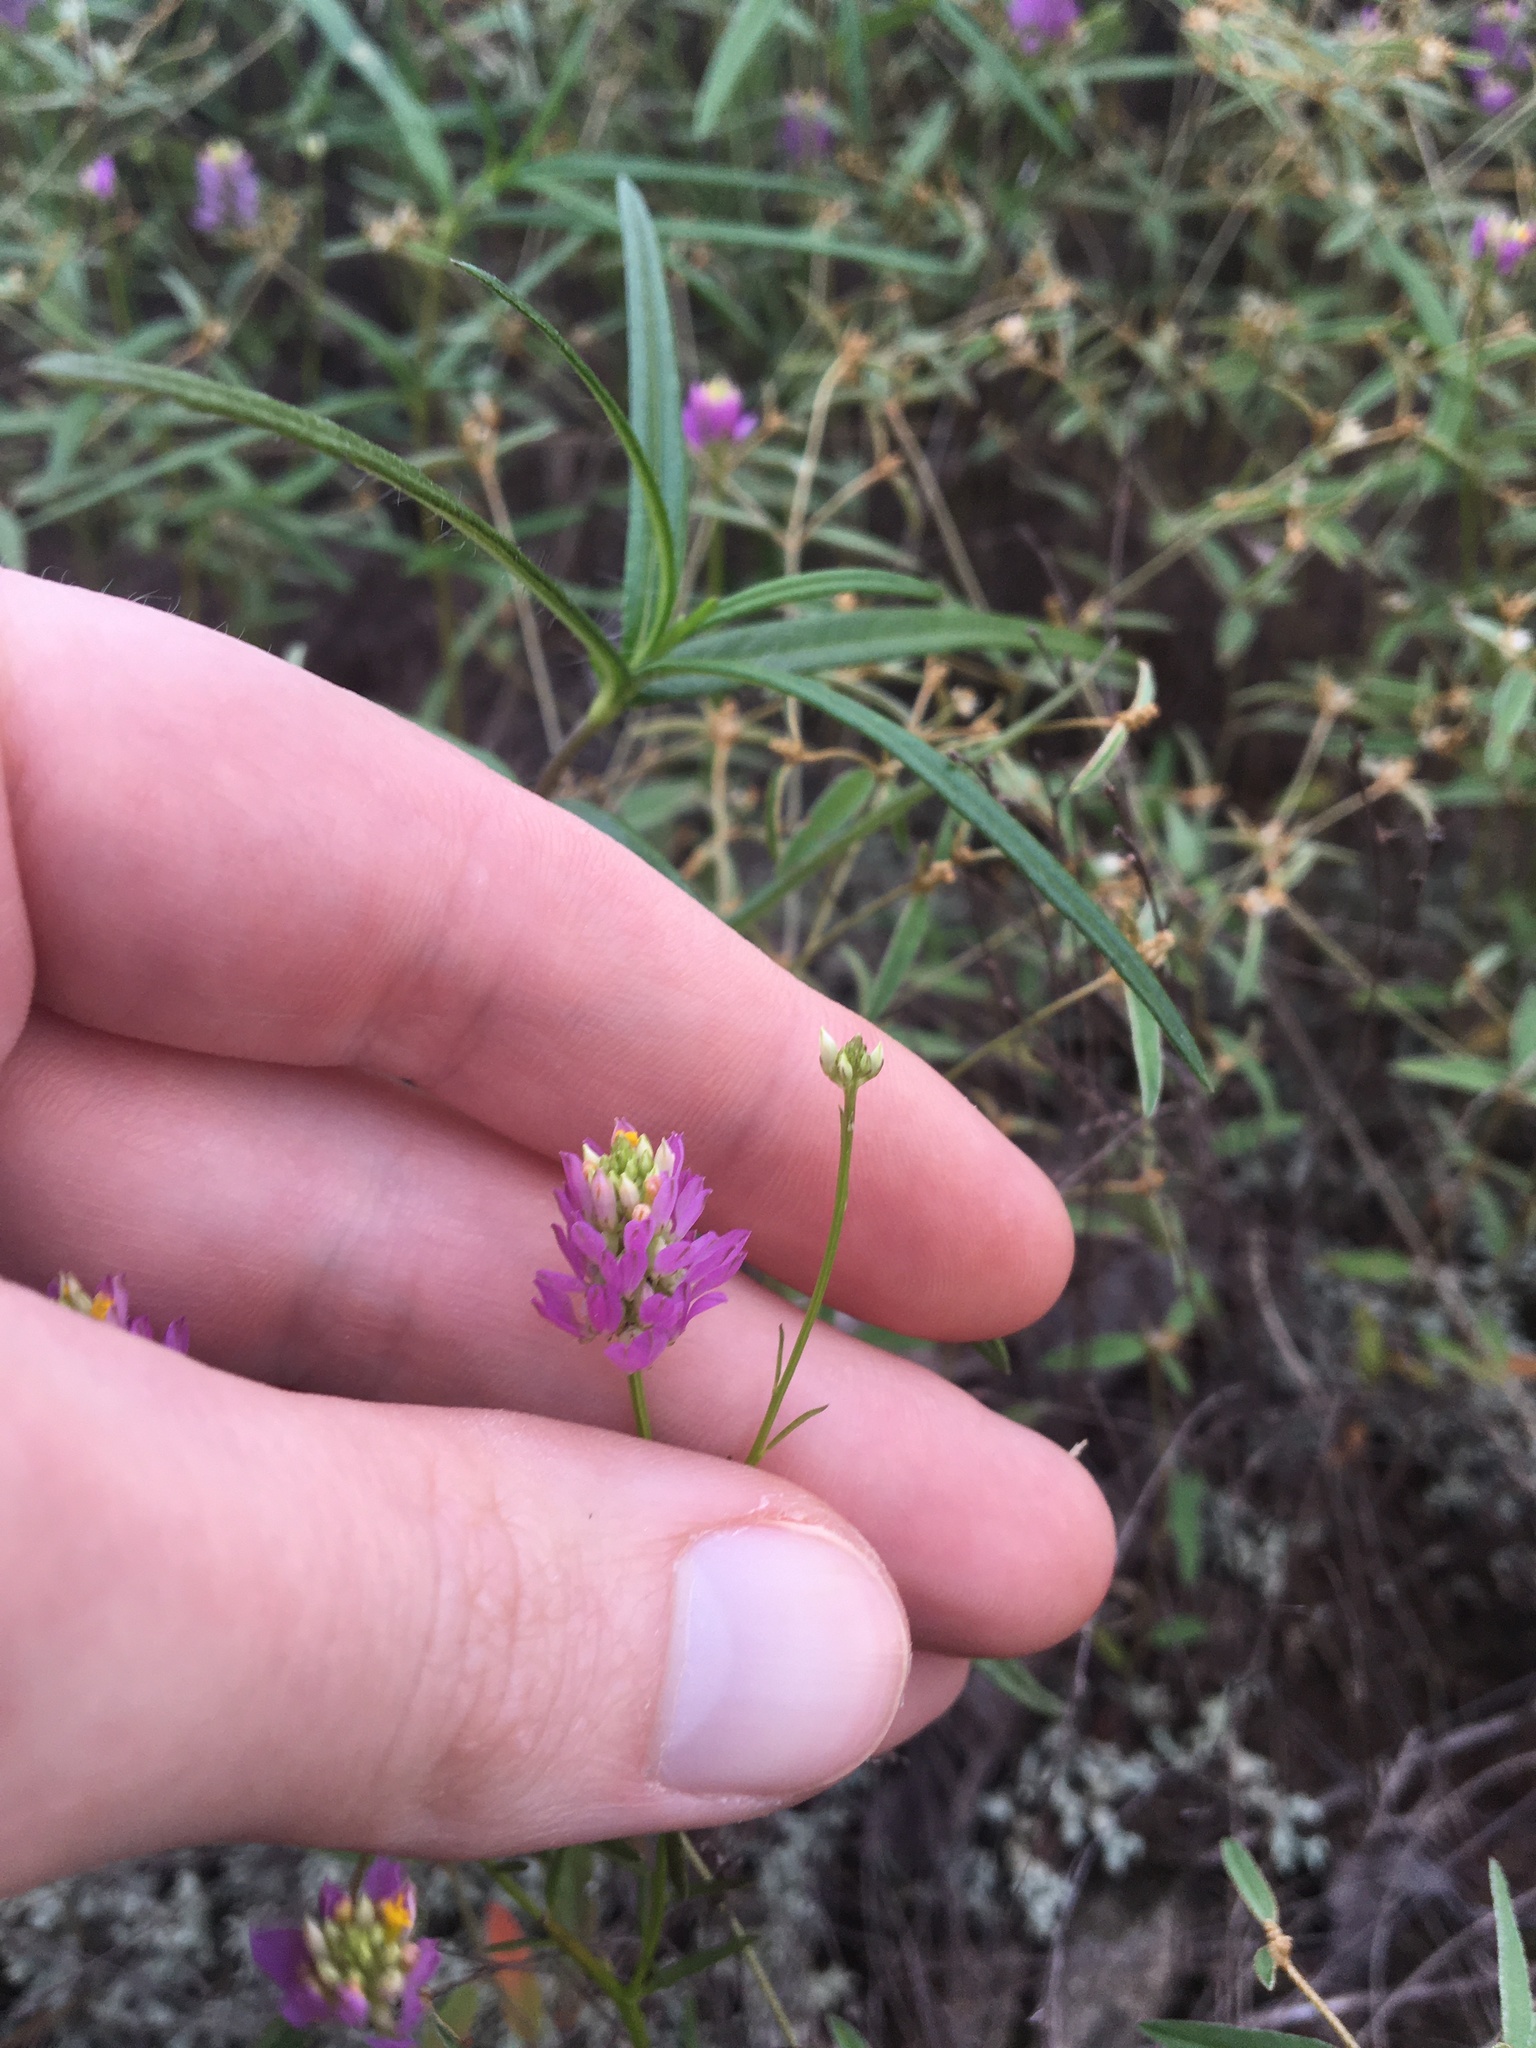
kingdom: Plantae
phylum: Tracheophyta
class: Magnoliopsida
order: Fabales
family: Polygalaceae
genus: Polygala
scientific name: Polygala curtissii
